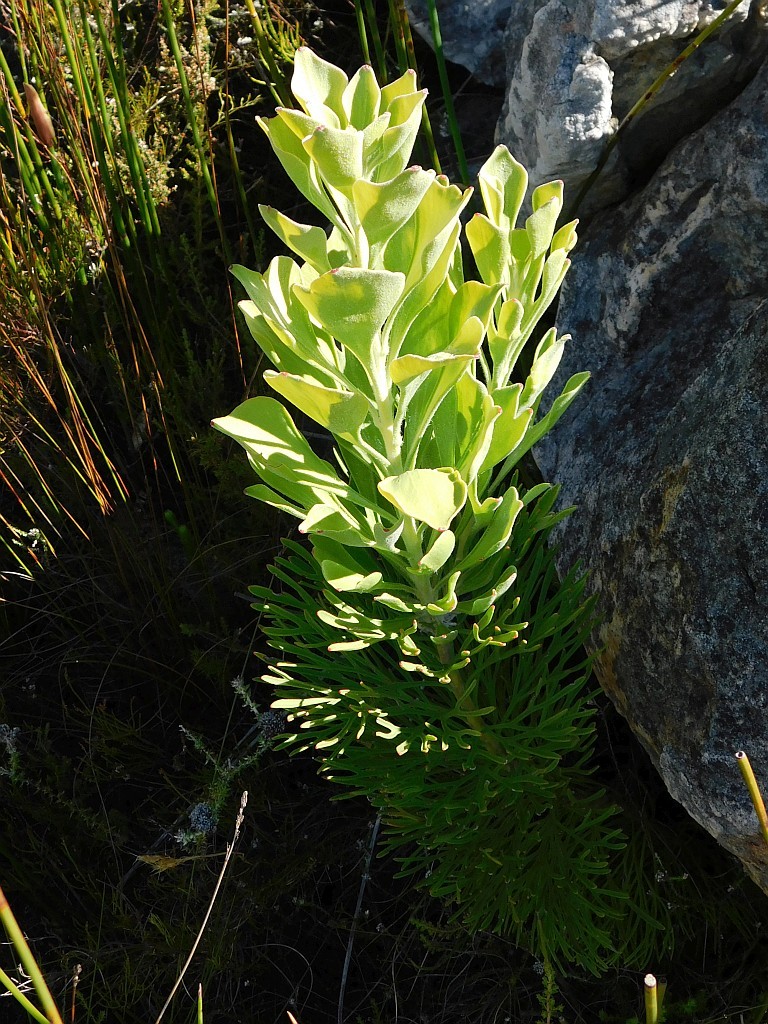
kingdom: Plantae
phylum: Tracheophyta
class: Magnoliopsida
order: Proteales
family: Proteaceae
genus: Paranomus
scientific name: Paranomus sceptrum-gustavianus
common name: King gustav's sceptre
